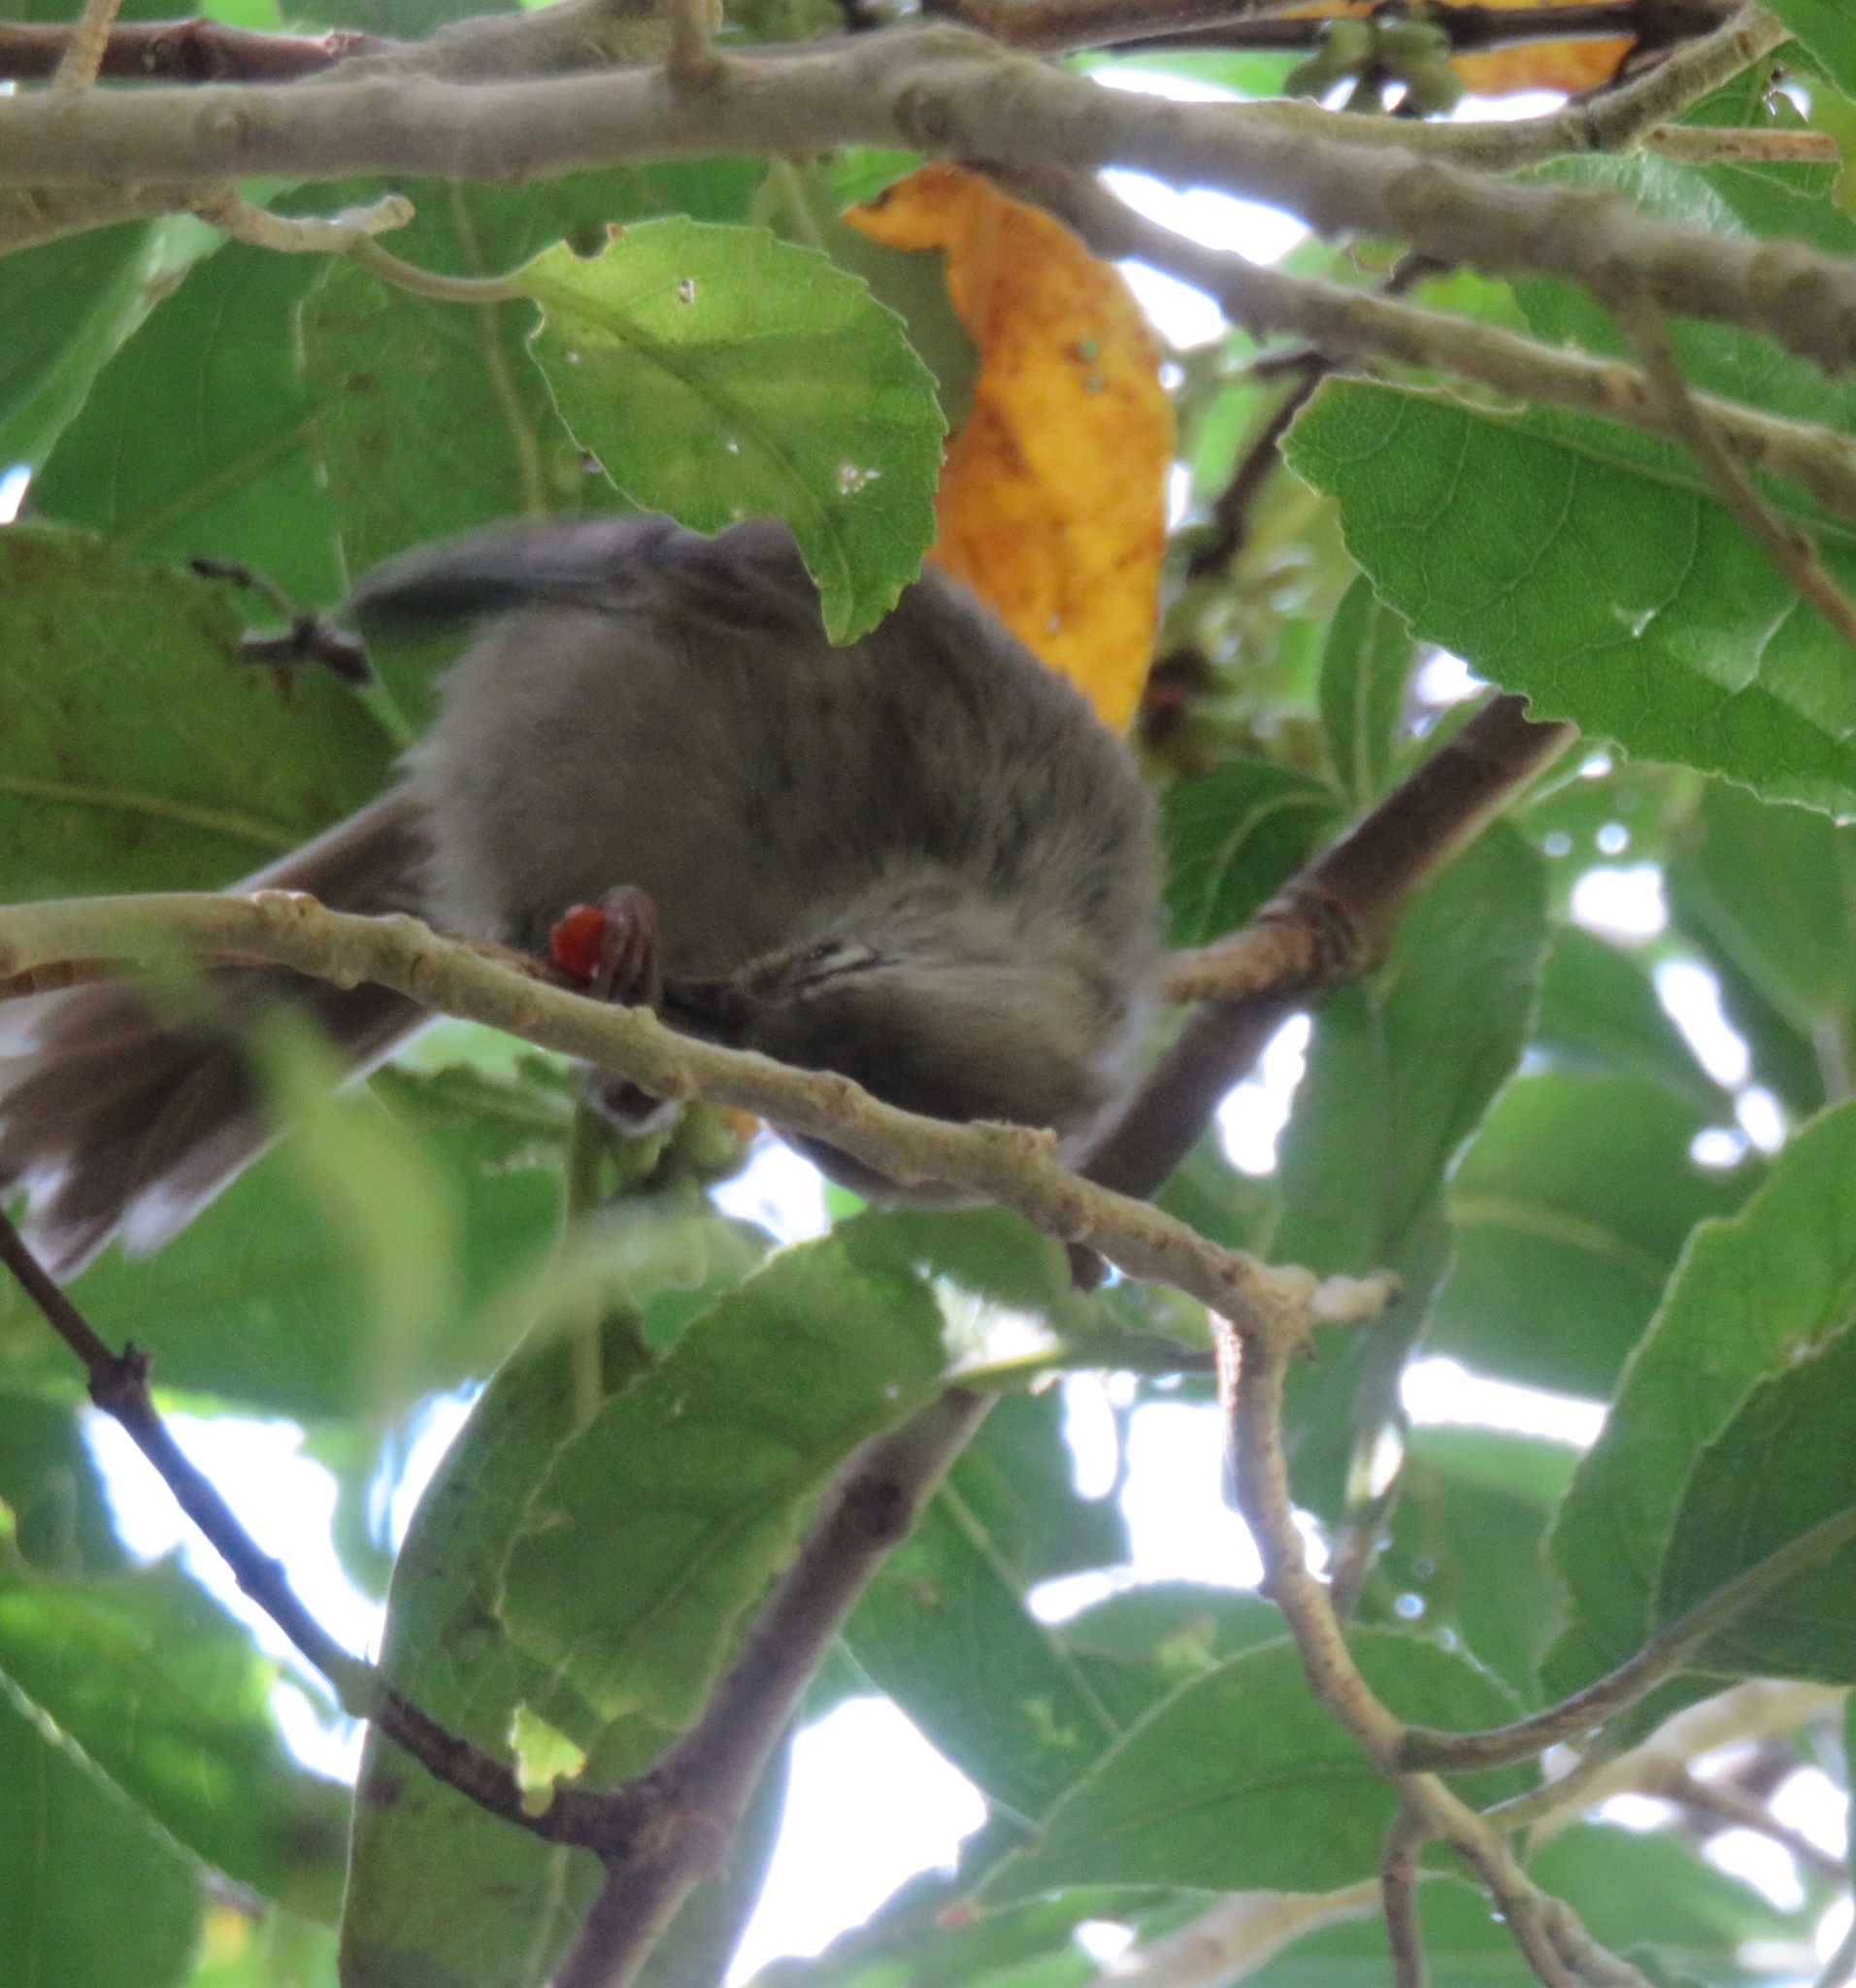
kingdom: Animalia
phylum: Chordata
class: Aves
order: Passeriformes
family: Acanthizidae
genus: Mohoua
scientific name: Mohoua albicilla
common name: Whitehead
